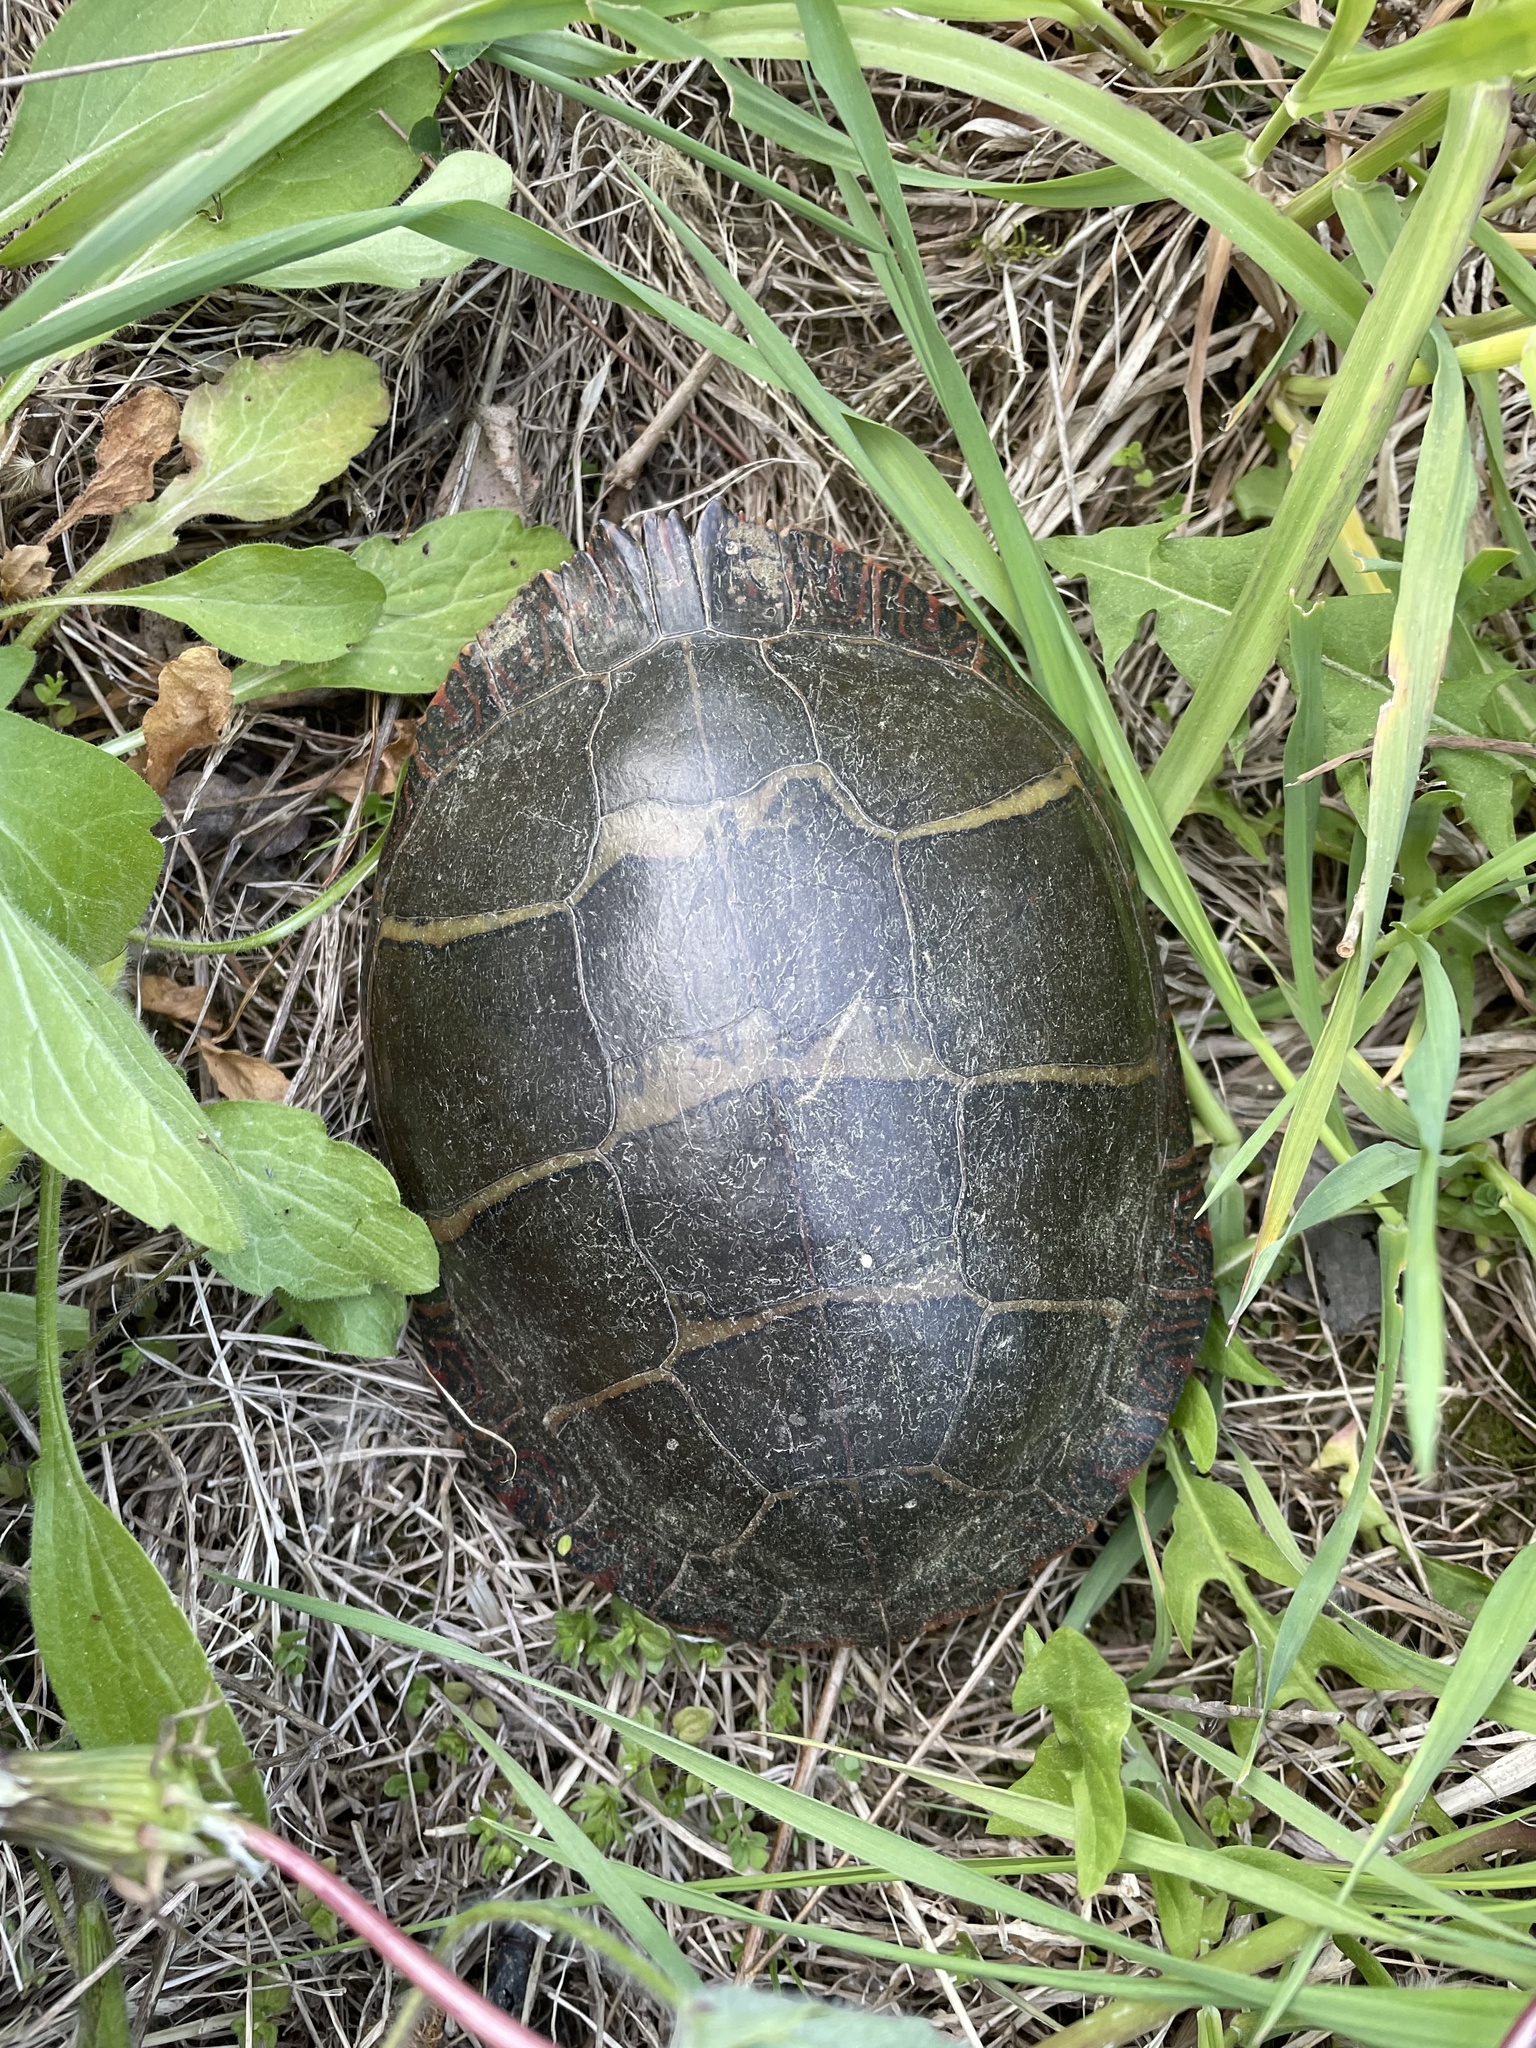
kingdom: Animalia
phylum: Chordata
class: Testudines
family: Emydidae
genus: Chrysemys
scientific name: Chrysemys picta
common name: Painted turtle
